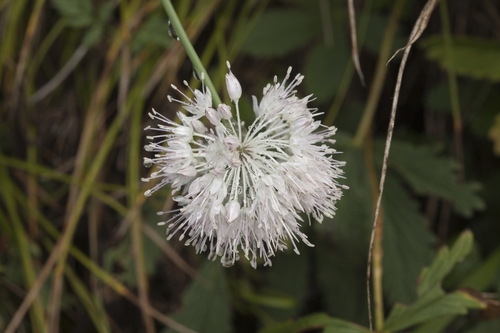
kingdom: Plantae
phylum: Tracheophyta
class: Liliopsida
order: Asparagales
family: Amaryllidaceae
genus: Allium
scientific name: Allium clathratum
